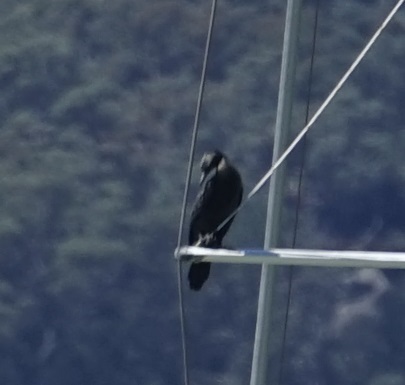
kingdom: Animalia
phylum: Chordata
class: Aves
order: Suliformes
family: Phalacrocoracidae
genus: Phalacrocorax
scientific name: Phalacrocorax sulcirostris
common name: Little black cormorant
